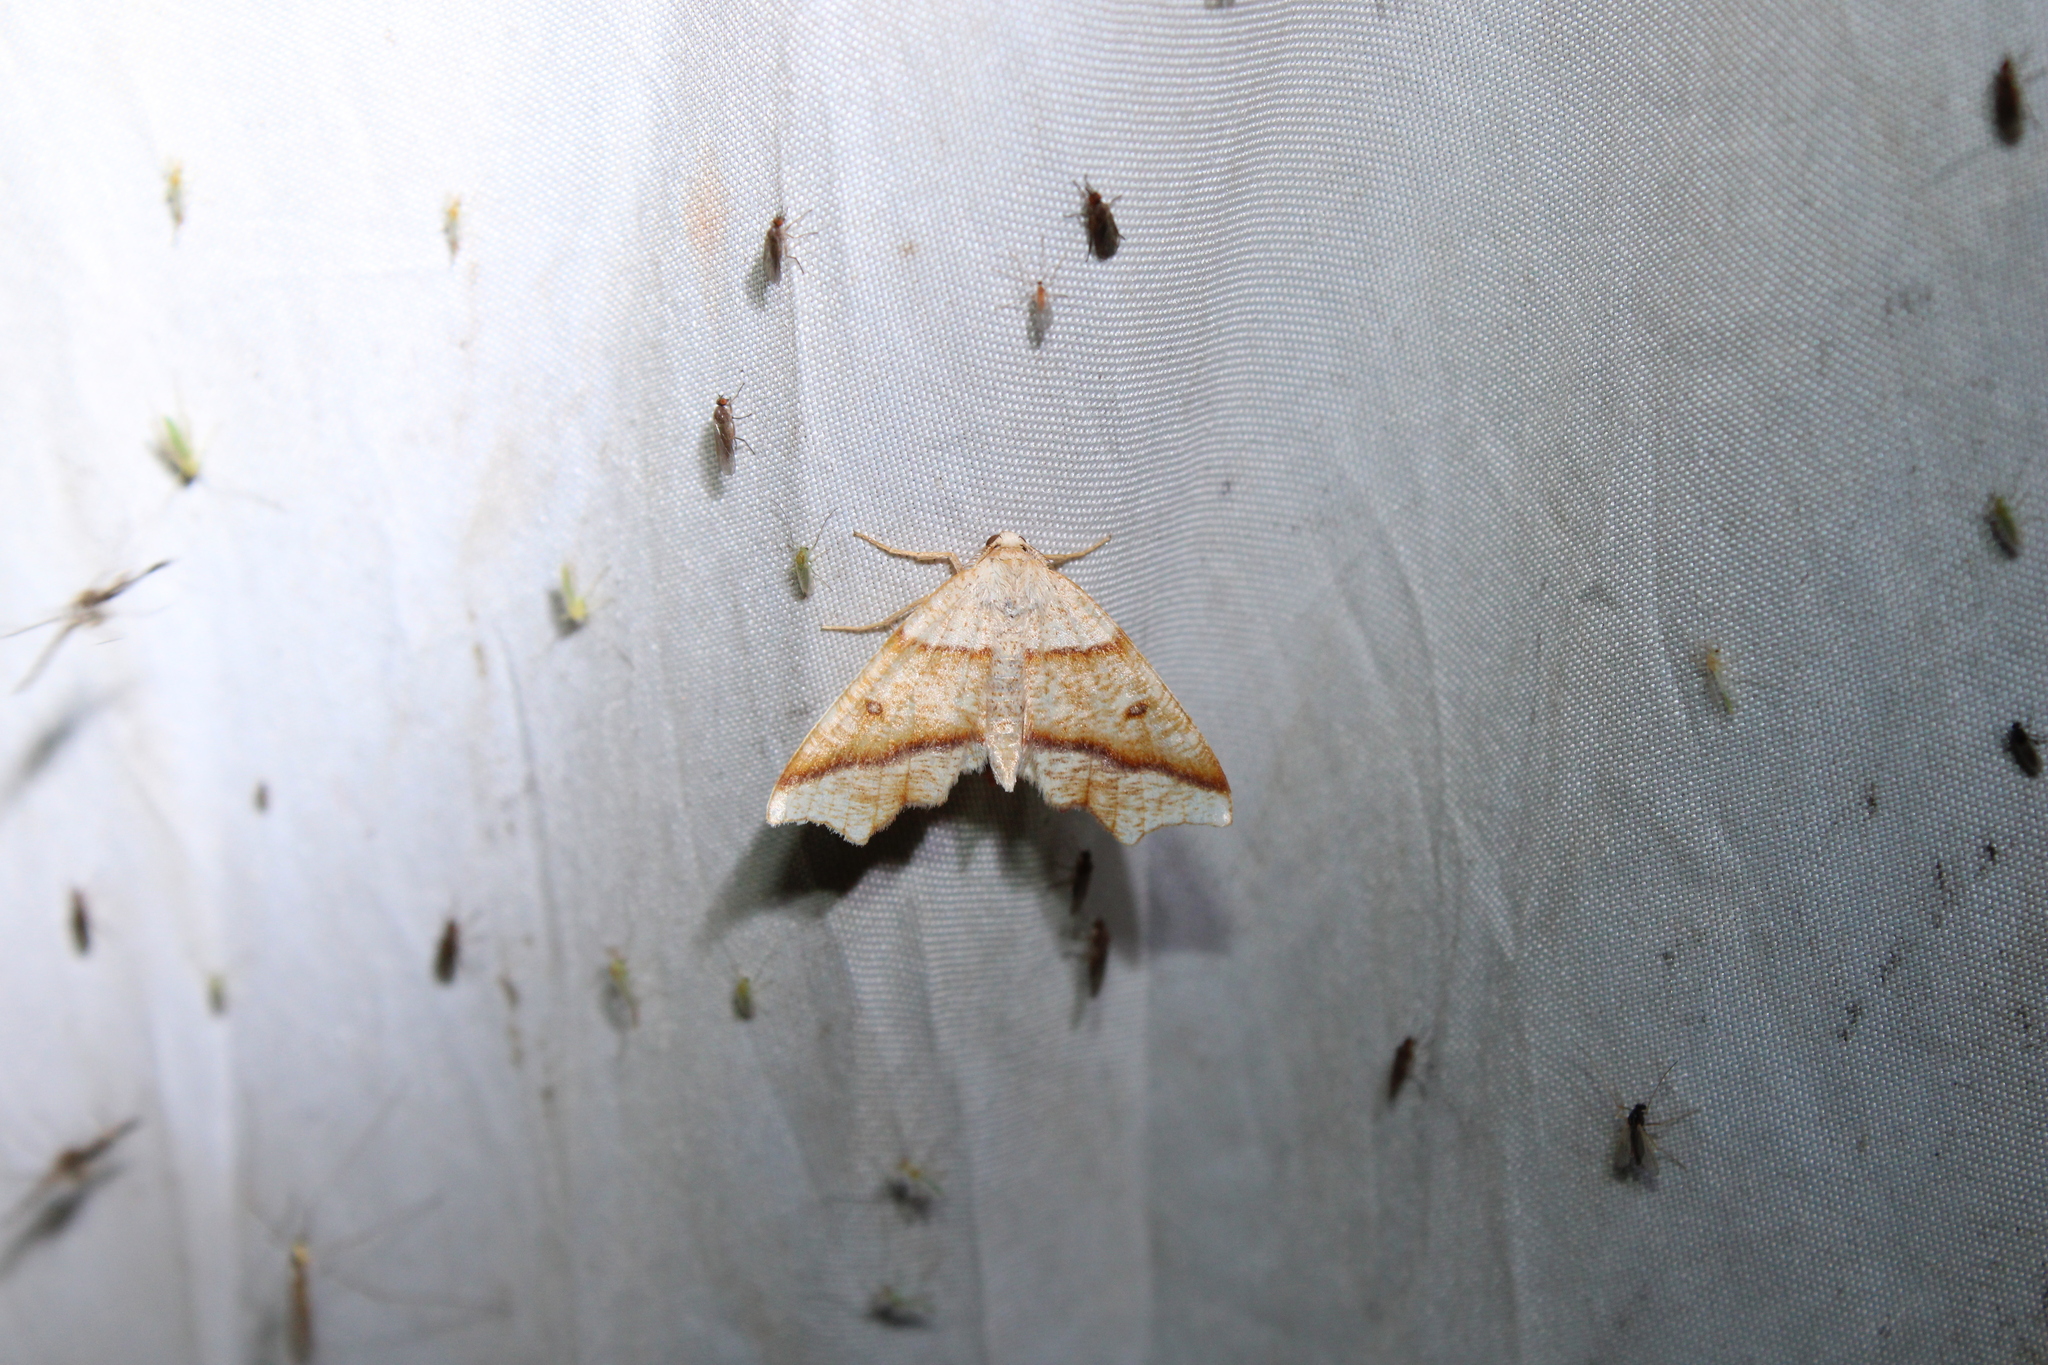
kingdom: Animalia
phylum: Arthropoda
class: Insecta
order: Lepidoptera
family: Geometridae
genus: Plagodis
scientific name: Plagodis alcoolaria
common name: Hollow-spotted plagodis
